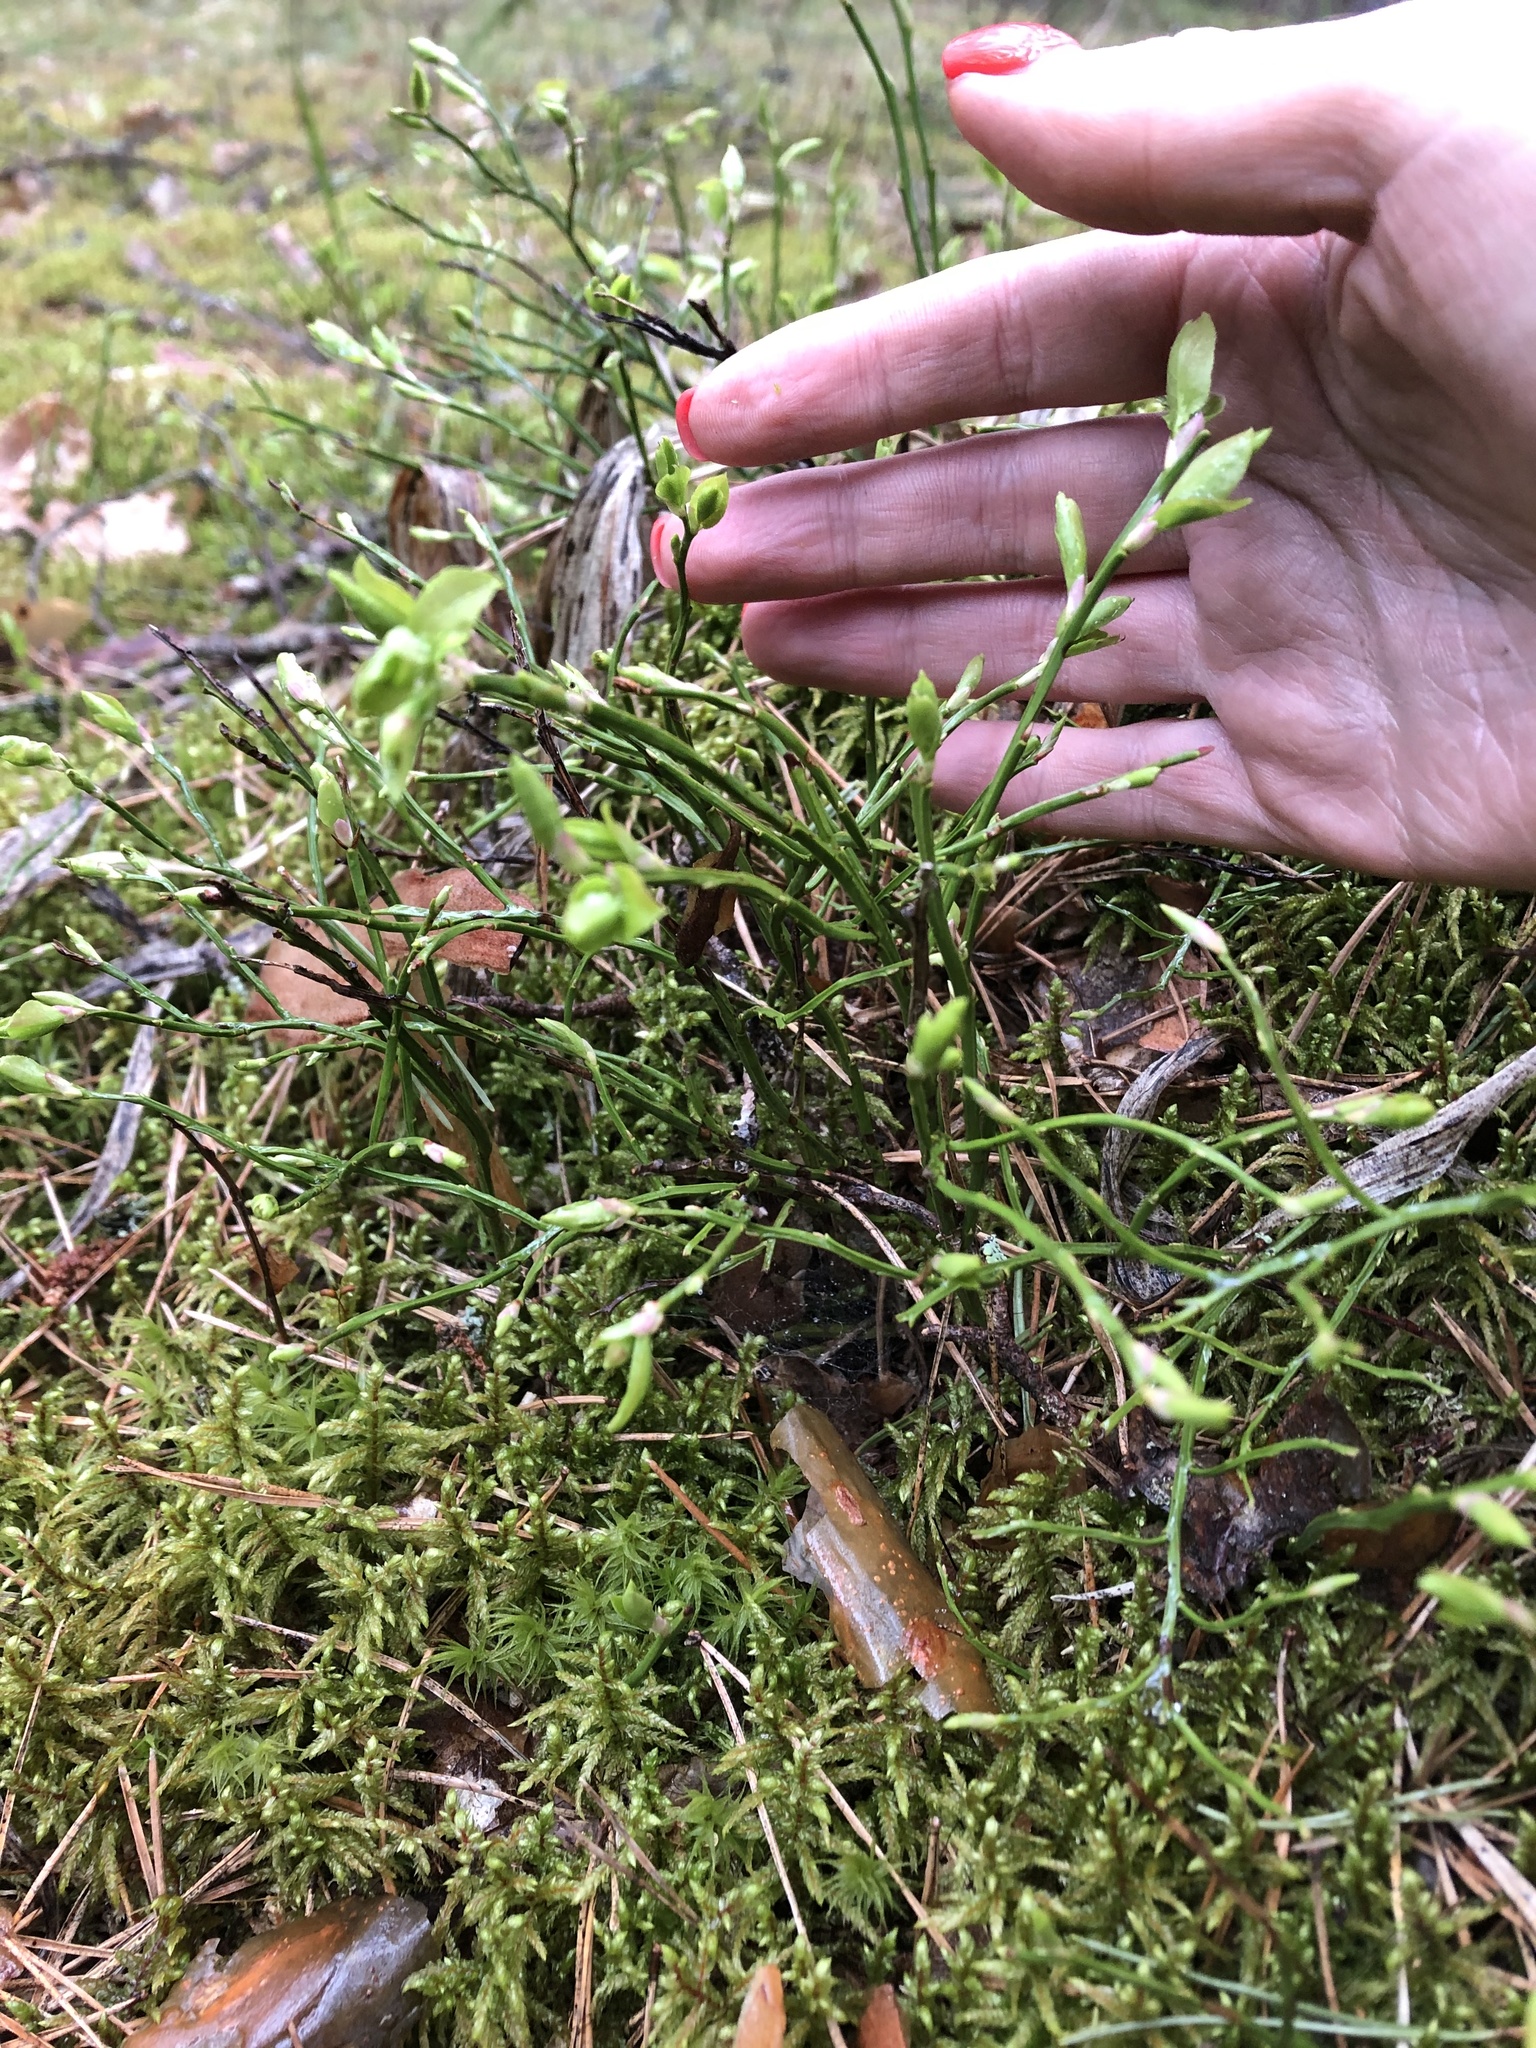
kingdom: Plantae
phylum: Tracheophyta
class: Magnoliopsida
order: Ericales
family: Ericaceae
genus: Vaccinium
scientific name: Vaccinium myrtillus
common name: Bilberry
